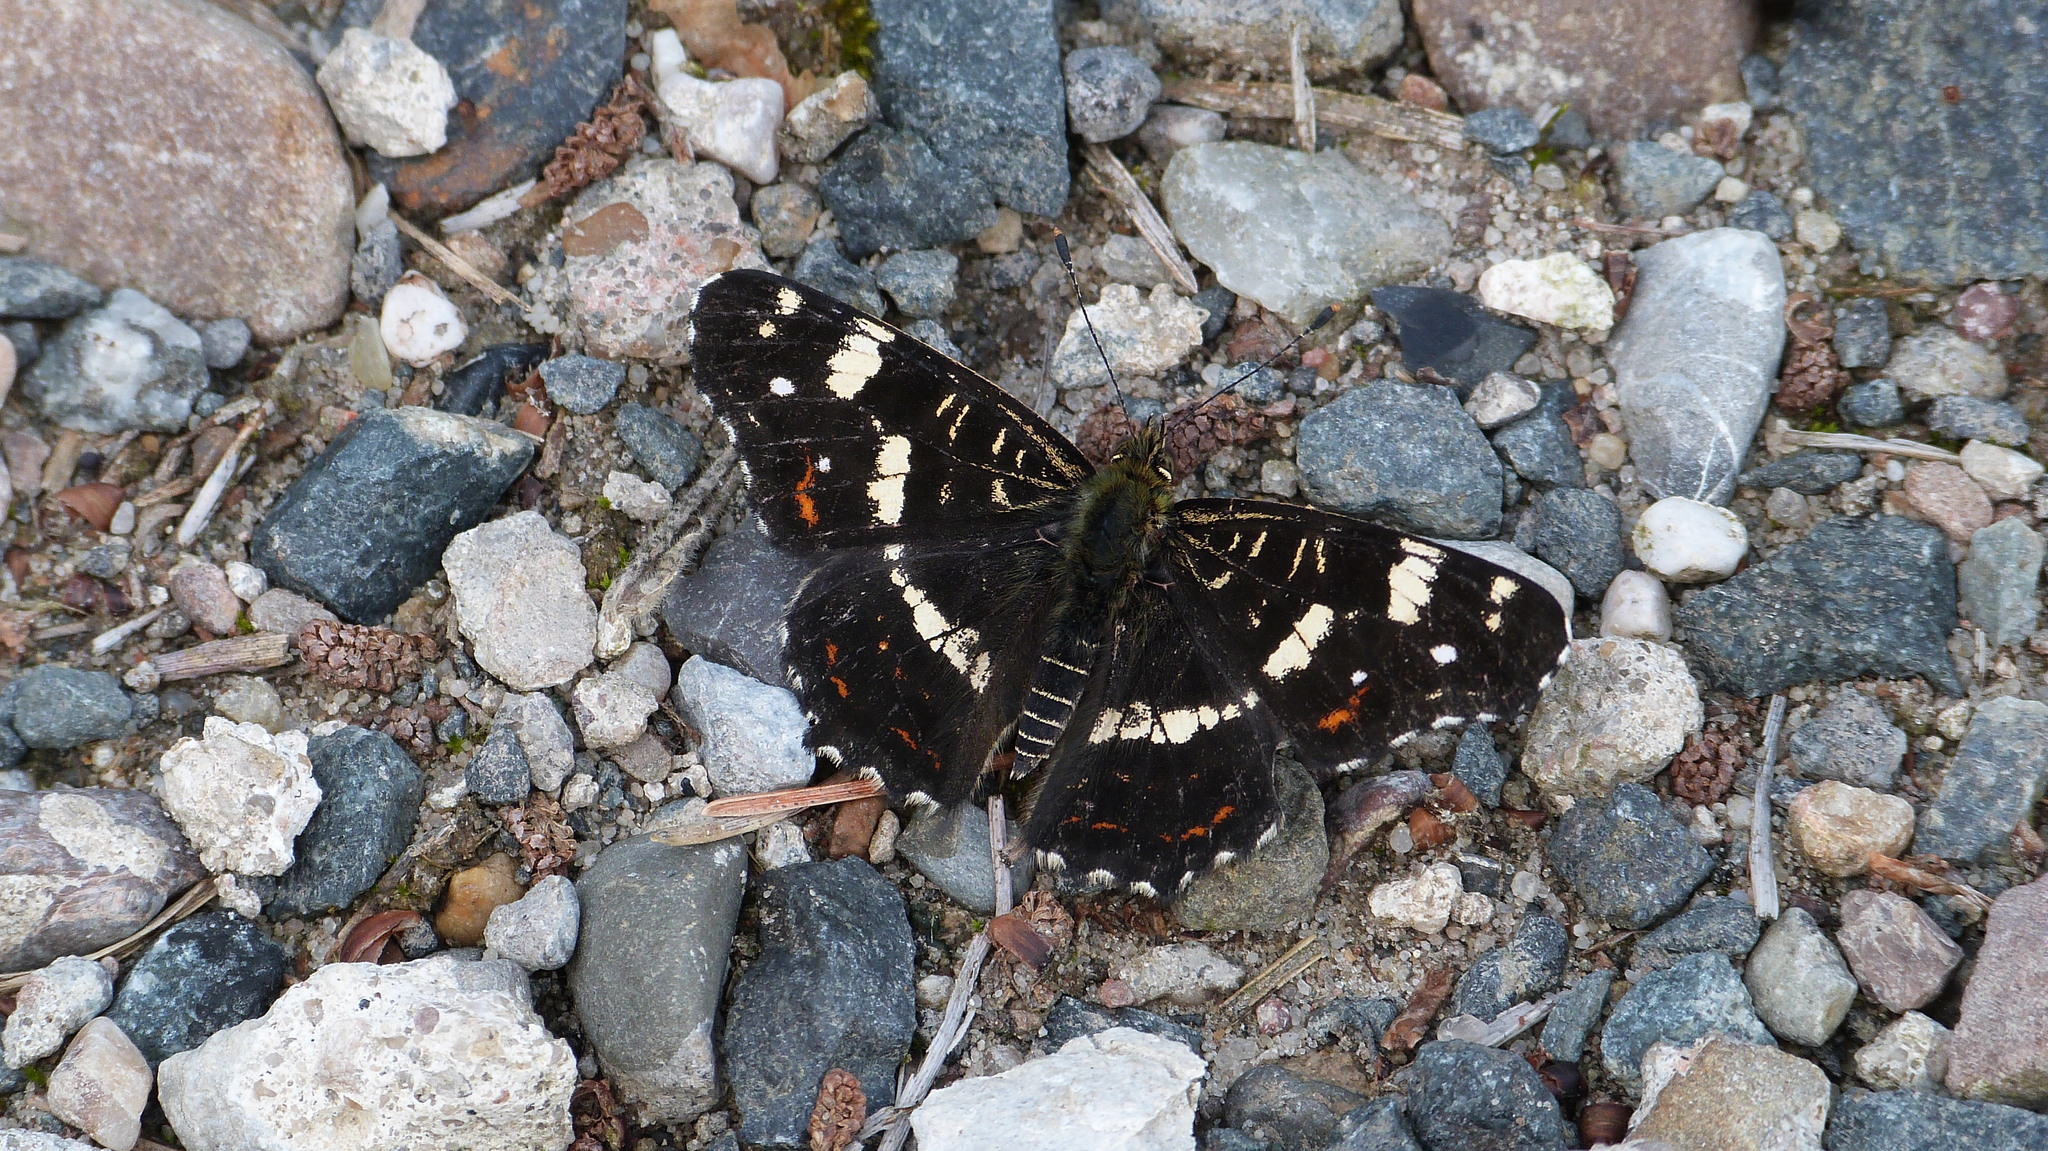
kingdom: Animalia
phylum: Arthropoda
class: Insecta
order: Lepidoptera
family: Nymphalidae
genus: Araschnia
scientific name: Araschnia levana
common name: Map butterfly
